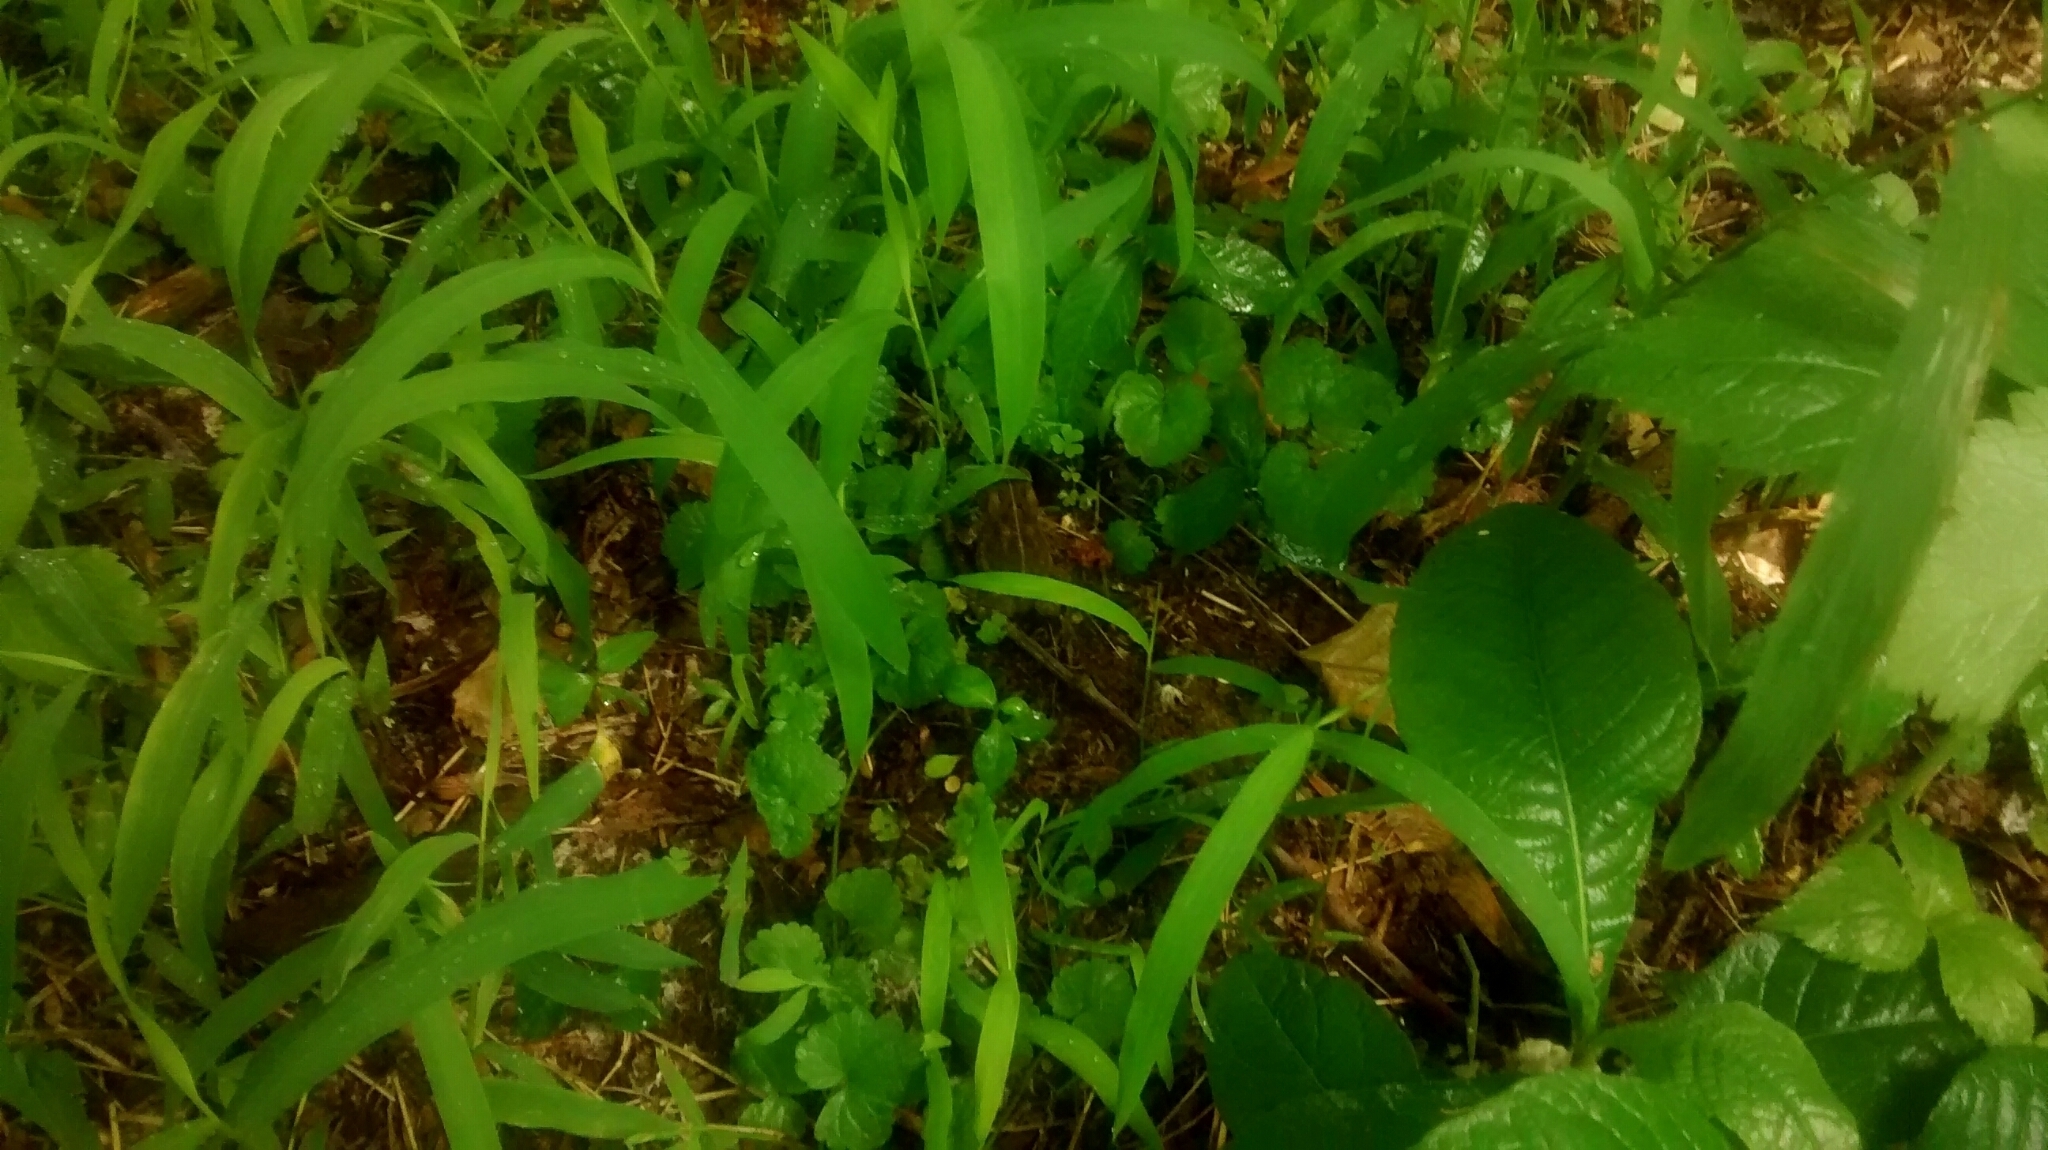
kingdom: Animalia
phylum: Arthropoda
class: Arachnida
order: Araneae
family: Thomisidae
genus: Synema
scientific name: Synema parvulum
